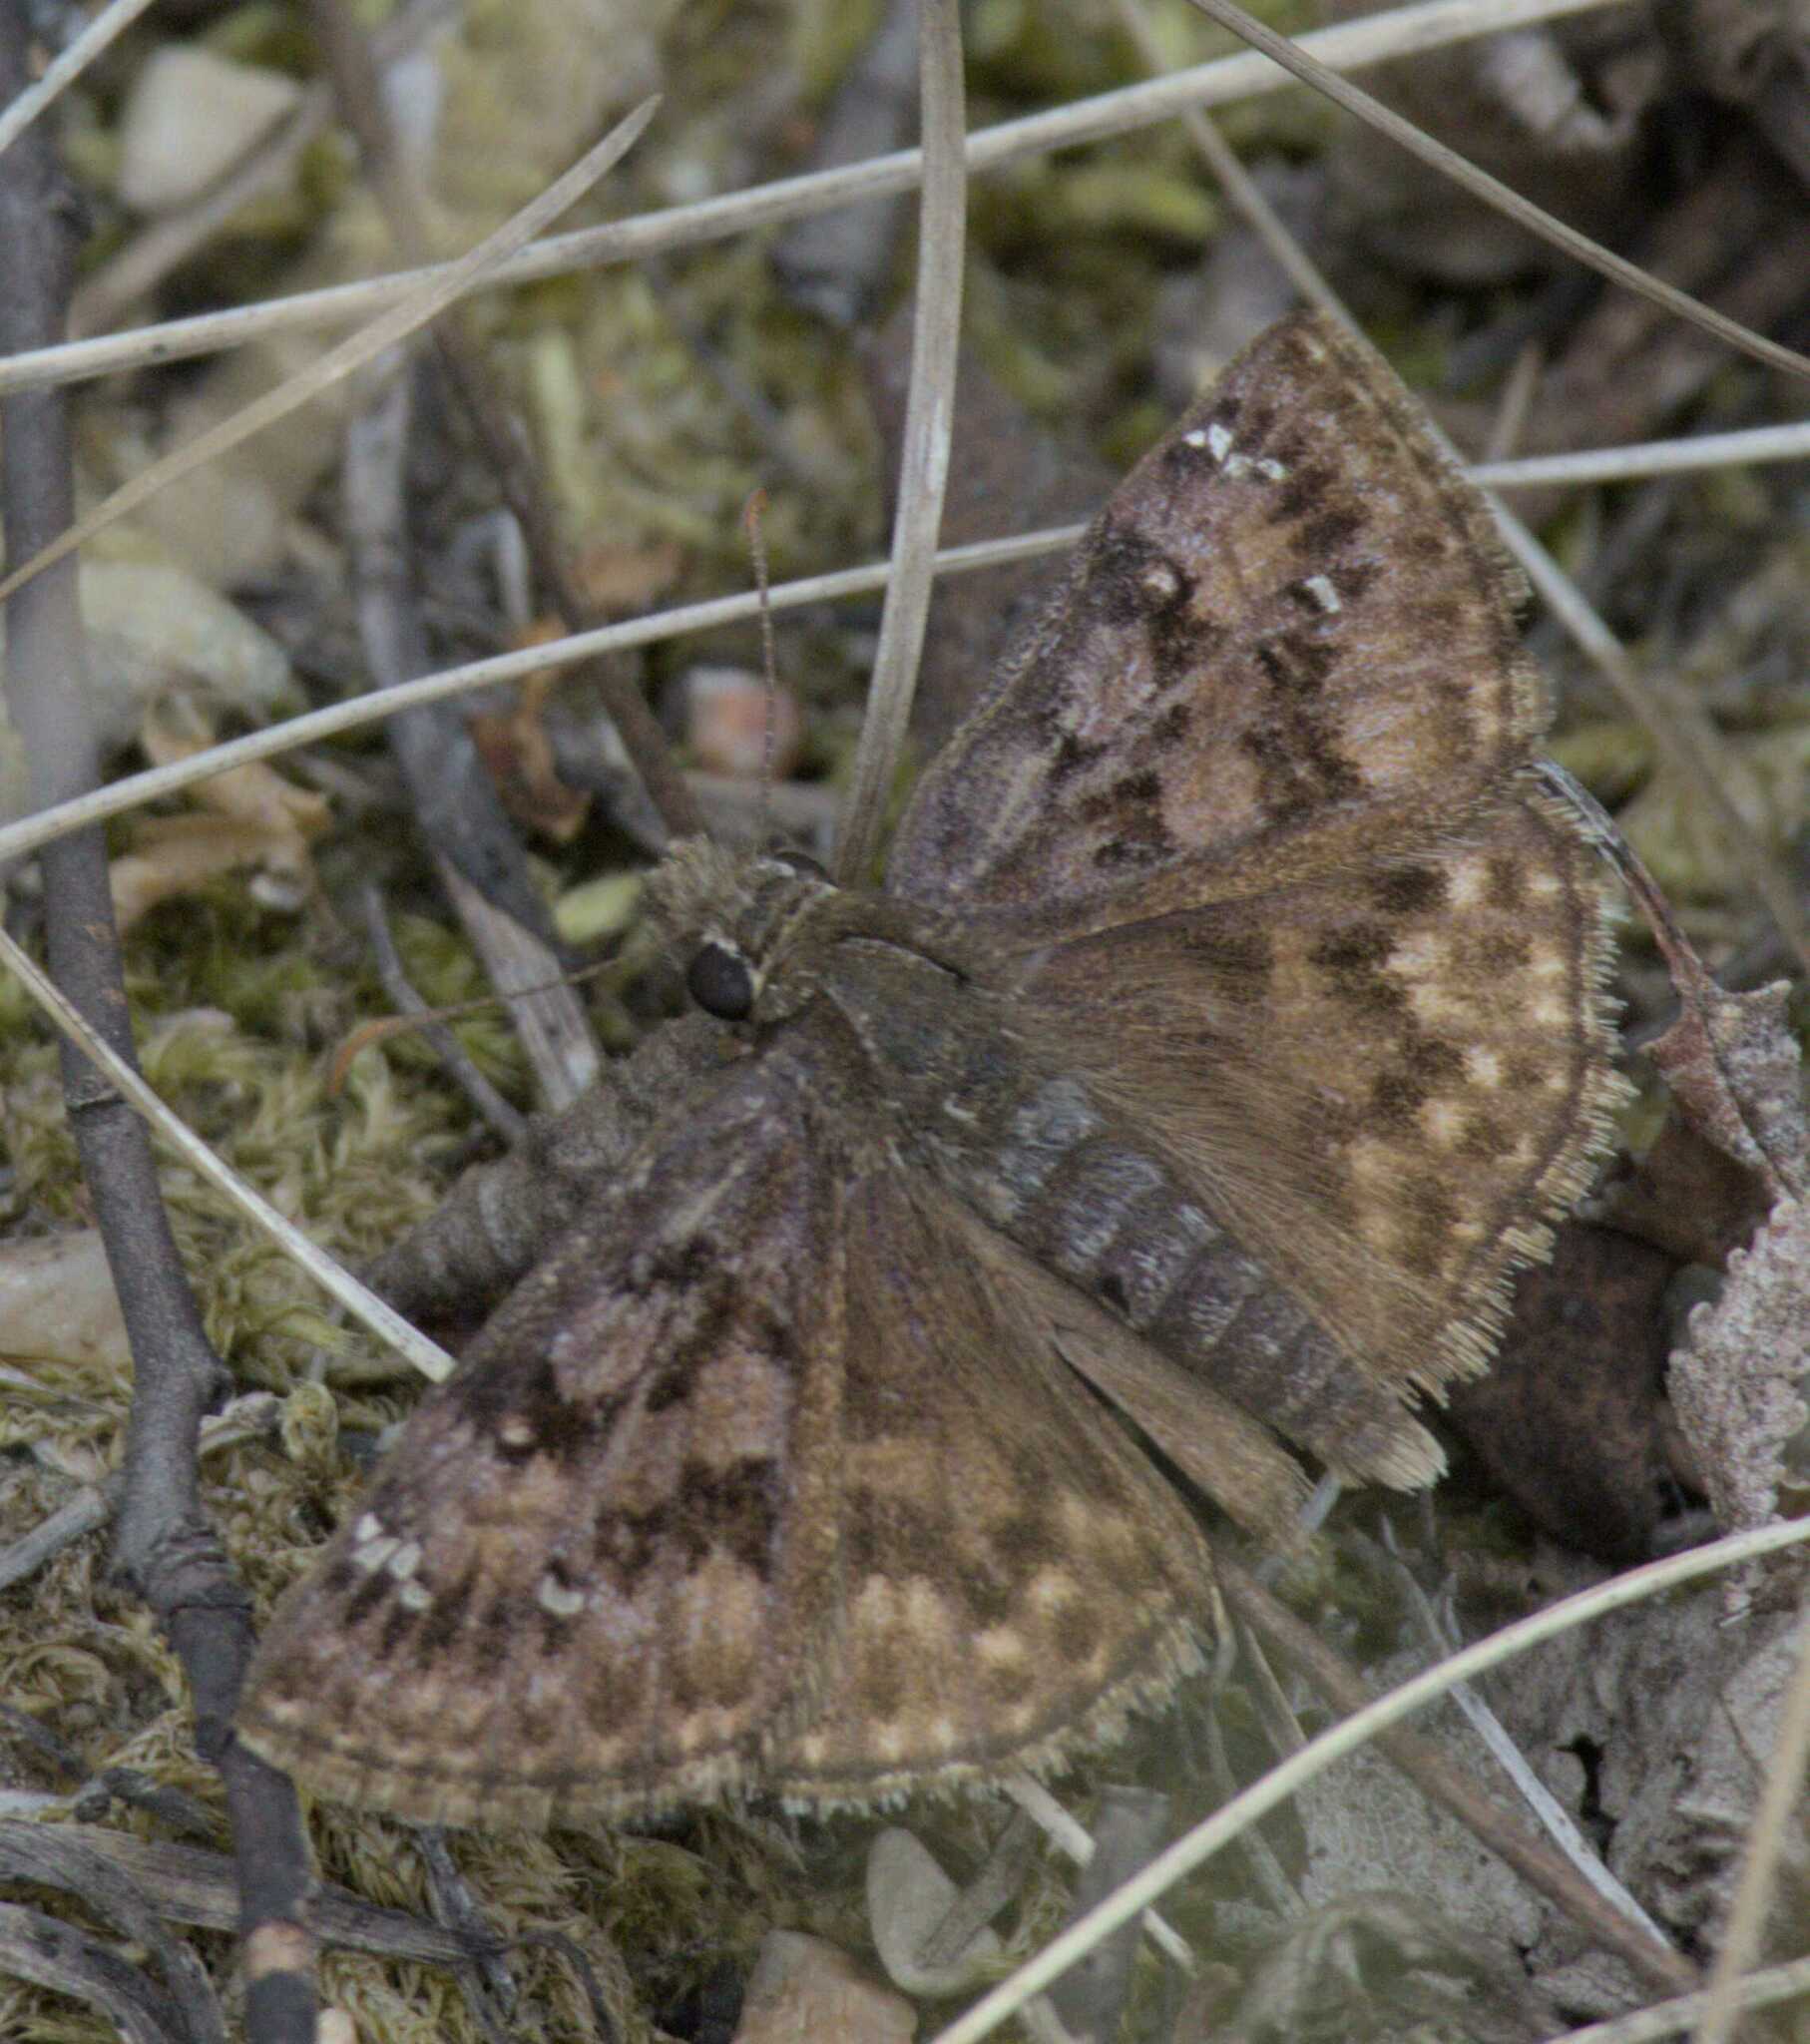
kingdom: Animalia
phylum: Arthropoda
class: Insecta
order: Lepidoptera
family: Hesperiidae
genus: Erynnis
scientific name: Erynnis martialis
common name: Mottled duskywing
